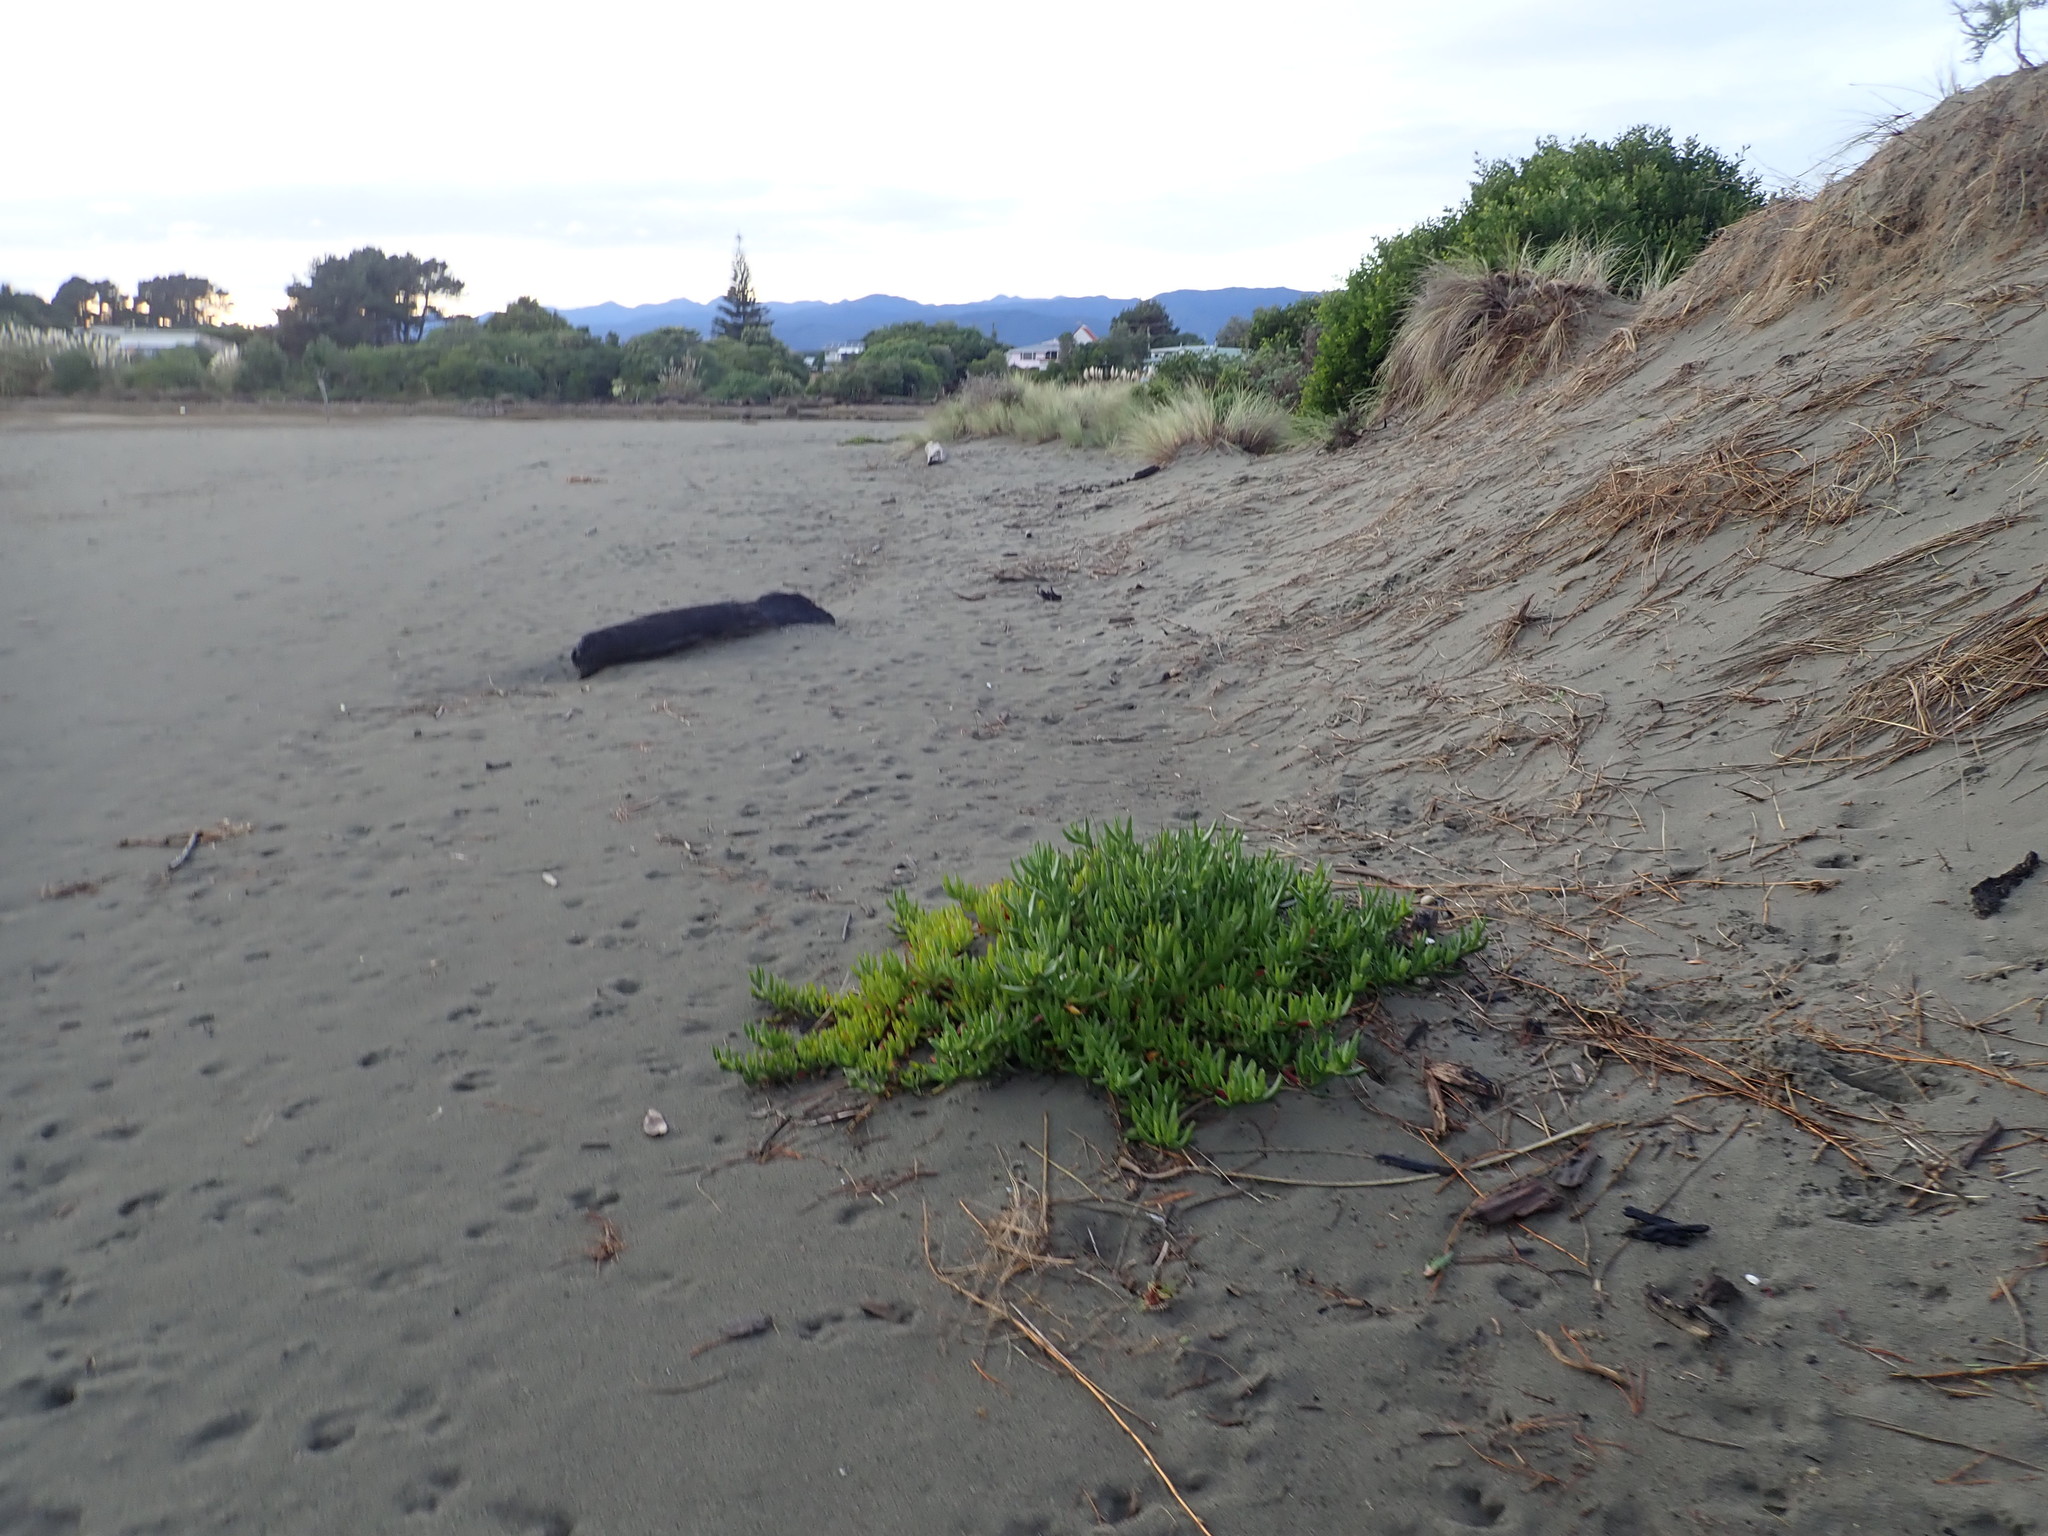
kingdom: Plantae
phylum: Tracheophyta
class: Magnoliopsida
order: Caryophyllales
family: Aizoaceae
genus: Carpobrotus
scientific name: Carpobrotus
